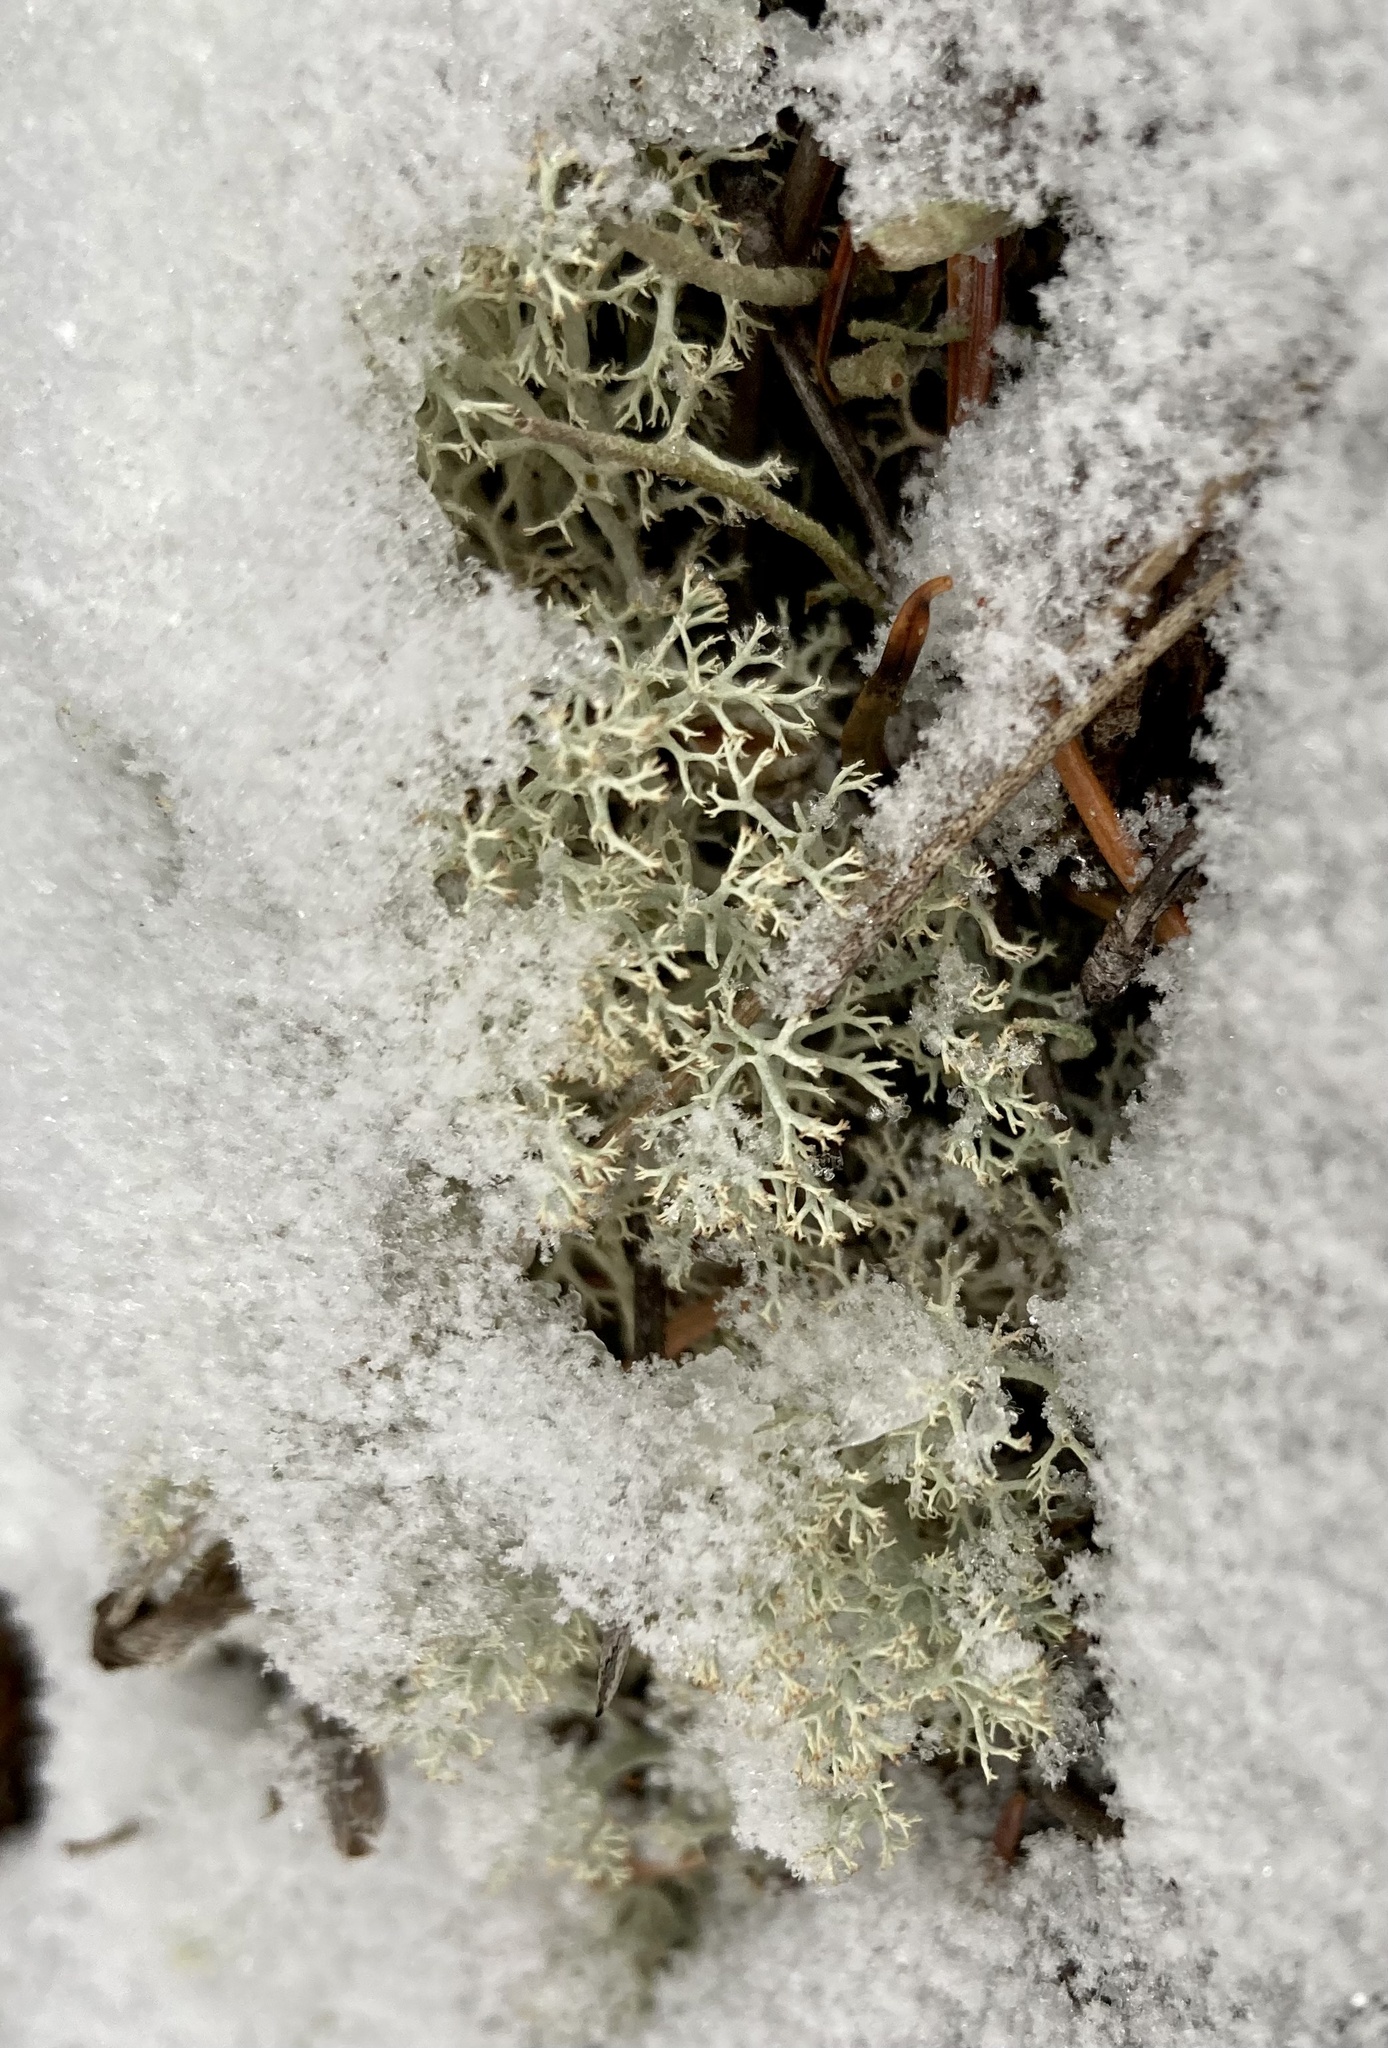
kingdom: Fungi
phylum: Ascomycota
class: Lecanoromycetes
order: Lecanorales
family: Cladoniaceae
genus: Cladonia
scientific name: Cladonia arbuscula
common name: Reindeer lichen
